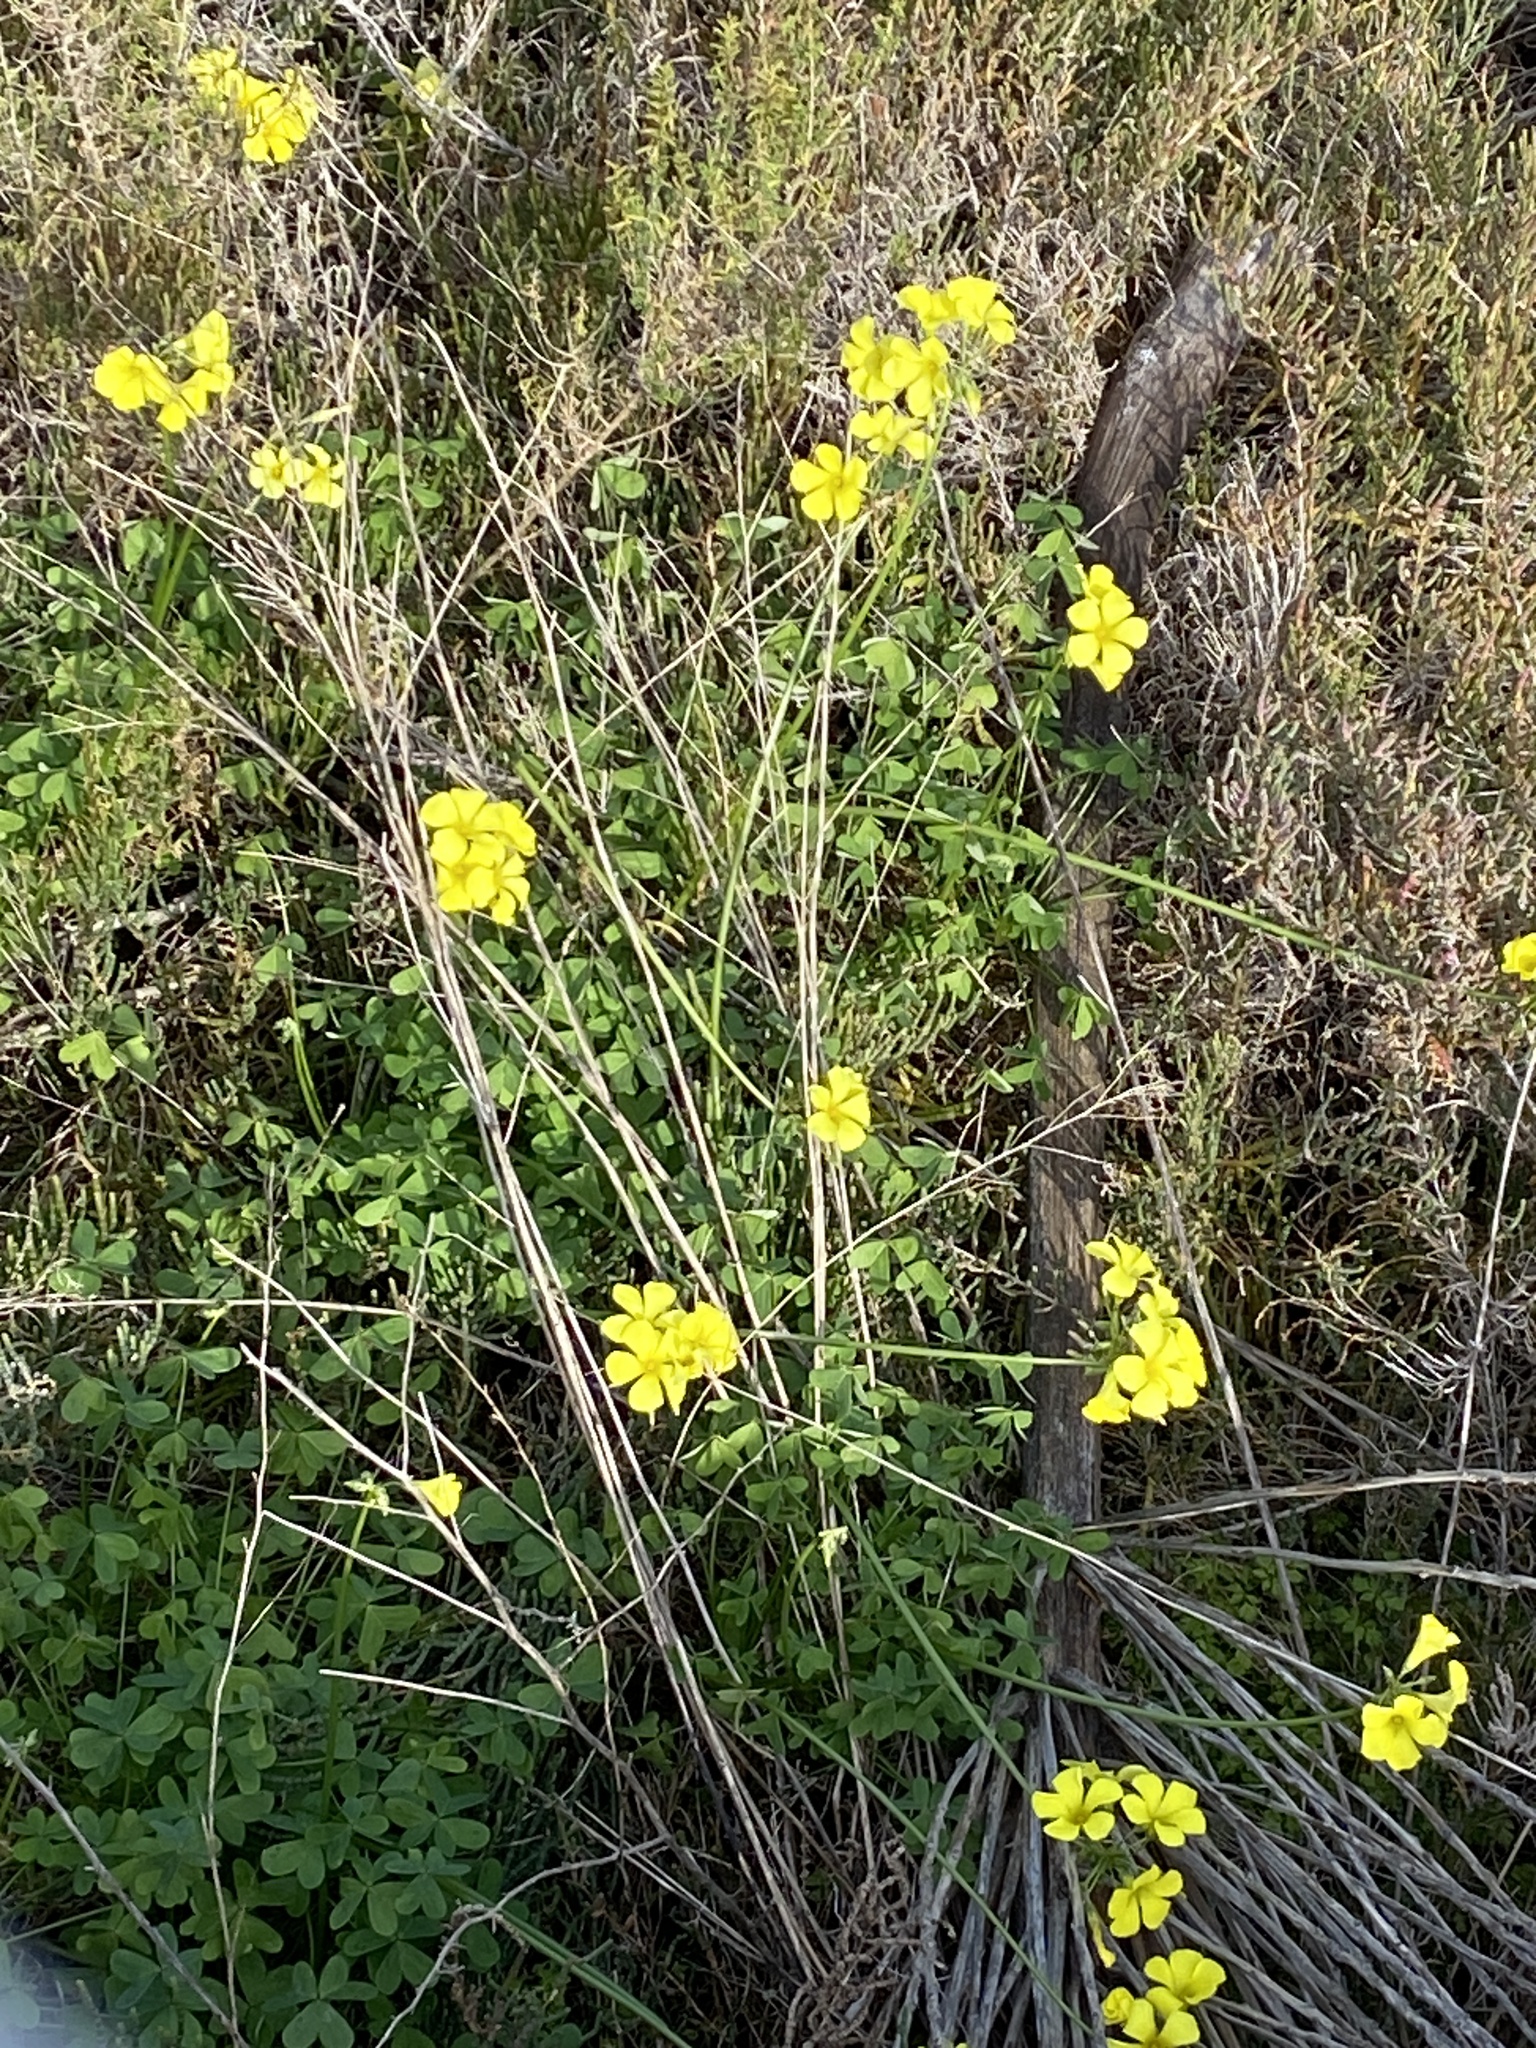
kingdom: Plantae
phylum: Tracheophyta
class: Magnoliopsida
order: Oxalidales
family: Oxalidaceae
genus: Oxalis
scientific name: Oxalis pes-caprae
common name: Bermuda-buttercup
